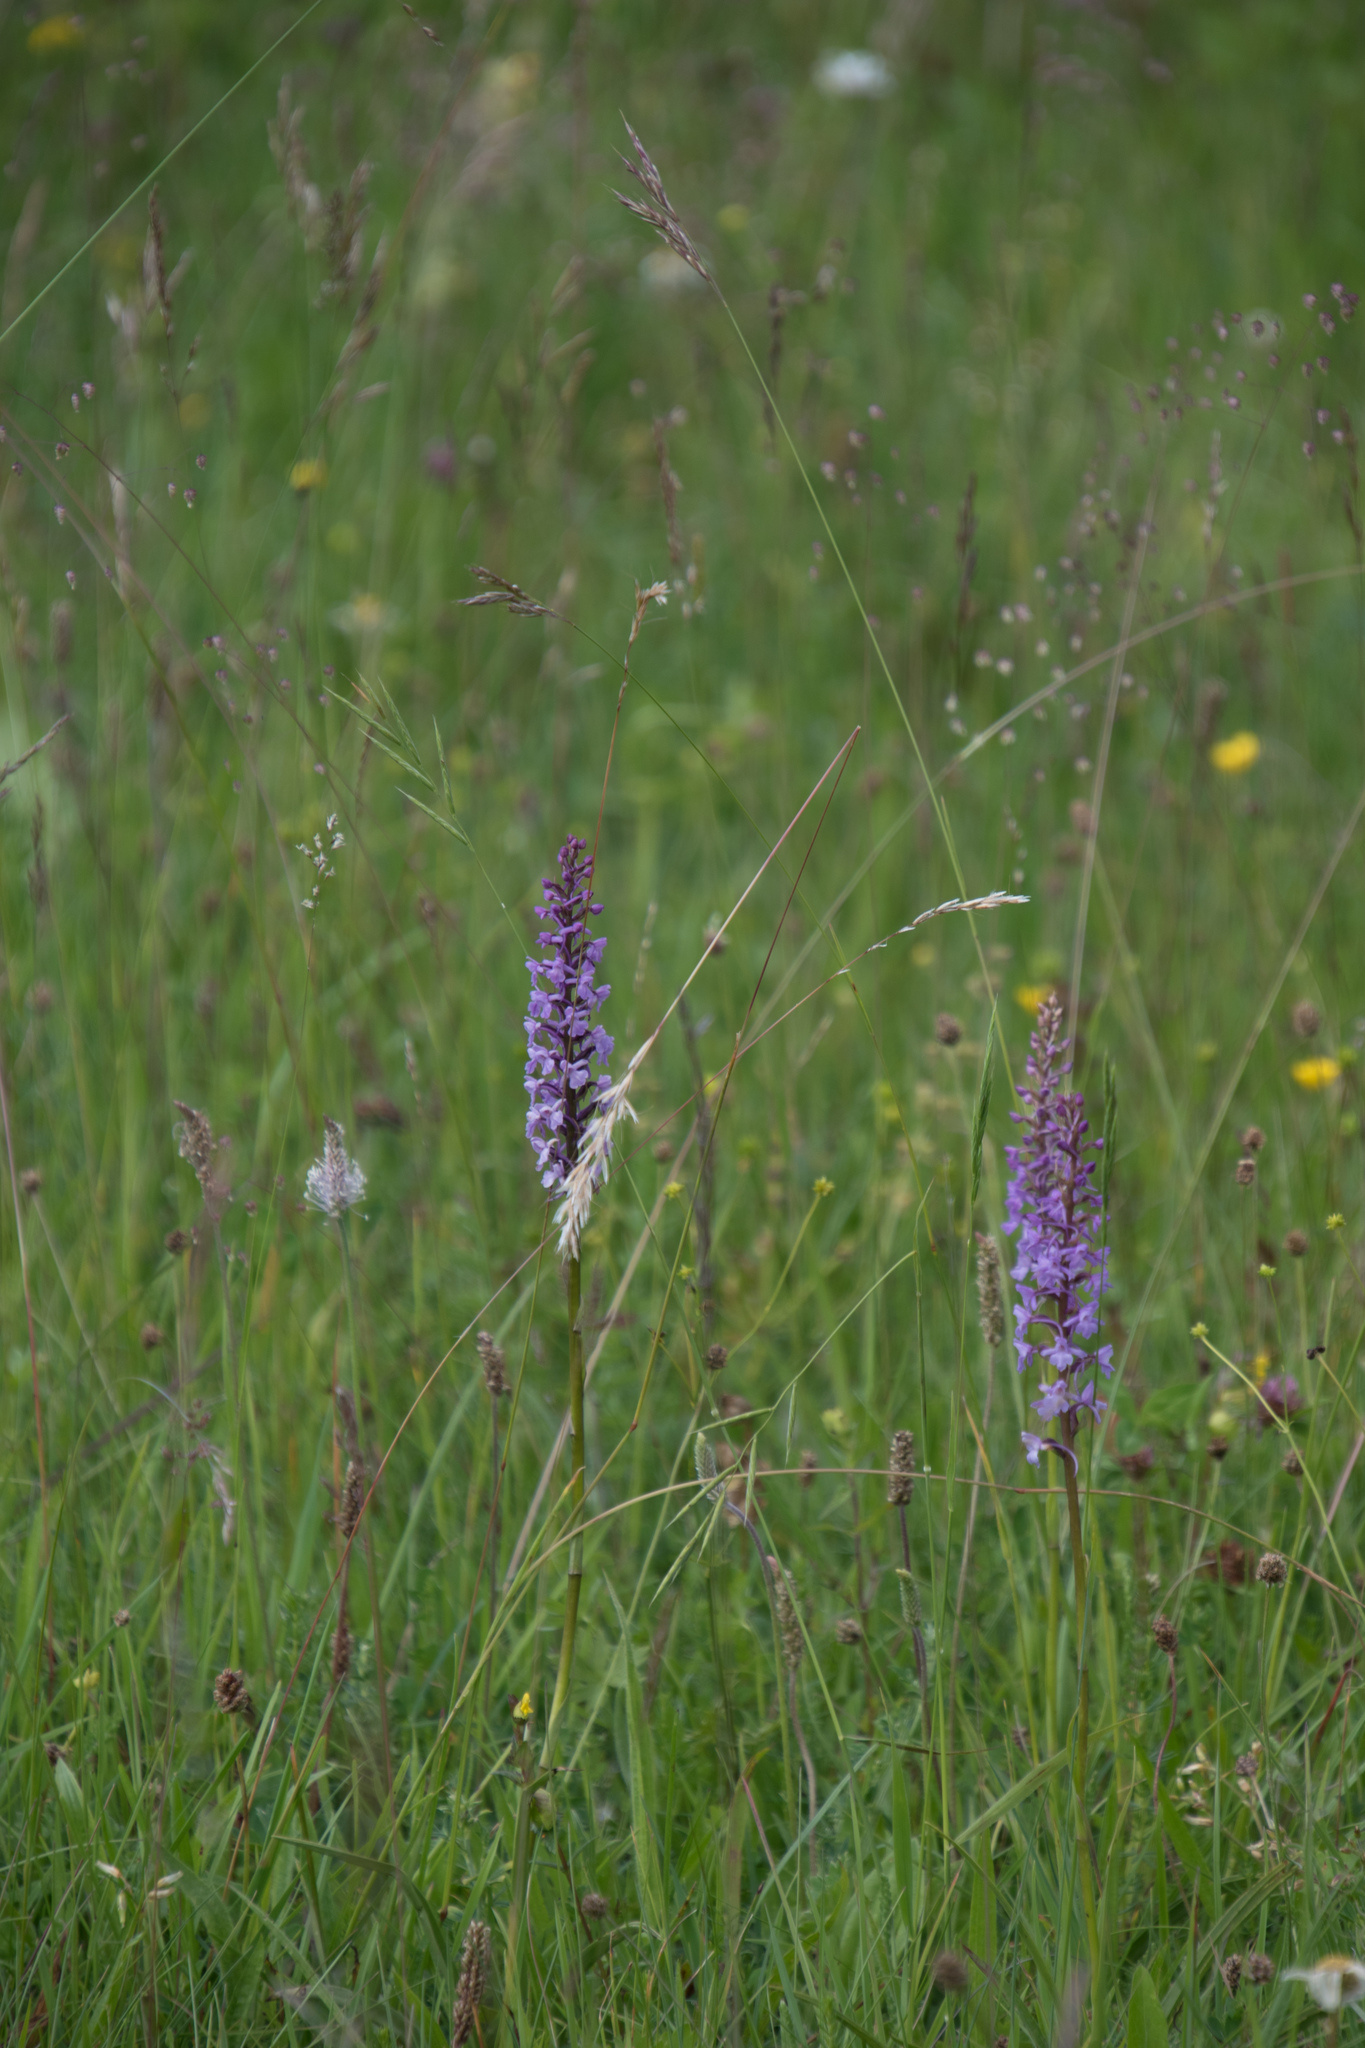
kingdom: Plantae
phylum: Tracheophyta
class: Liliopsida
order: Asparagales
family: Orchidaceae
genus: Gymnadenia
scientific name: Gymnadenia conopsea
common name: Fragrant orchid
